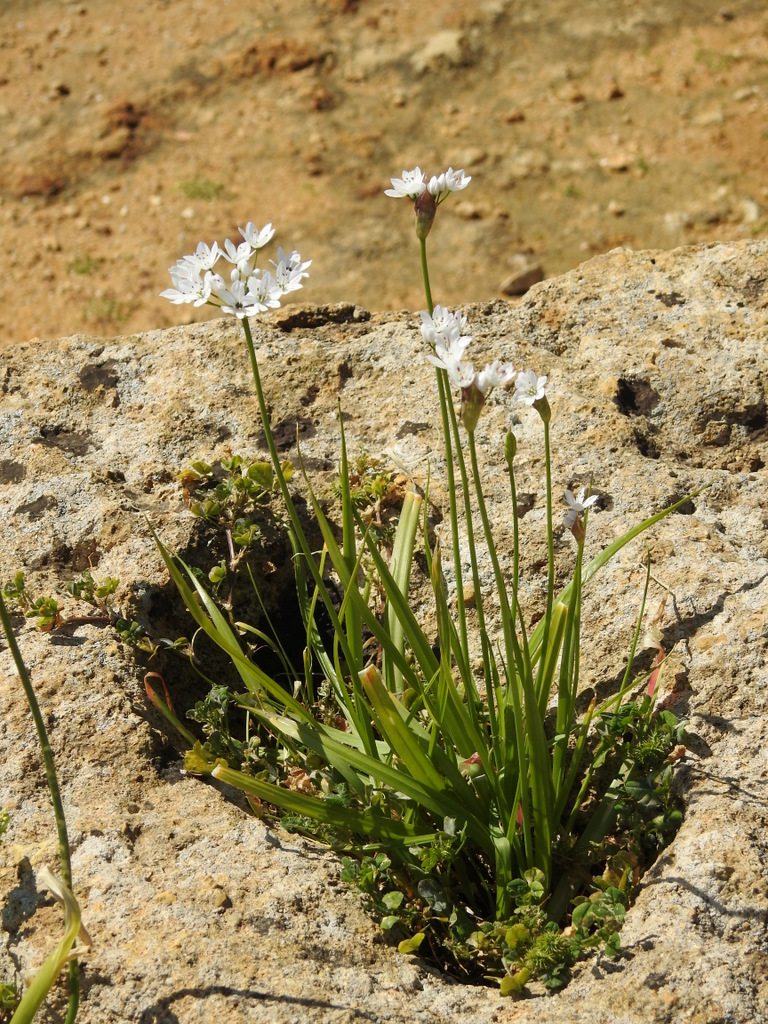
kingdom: Plantae
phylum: Tracheophyta
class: Liliopsida
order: Asparagales
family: Amaryllidaceae
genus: Allium
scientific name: Allium subhirsutum
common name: Hairy garlic
